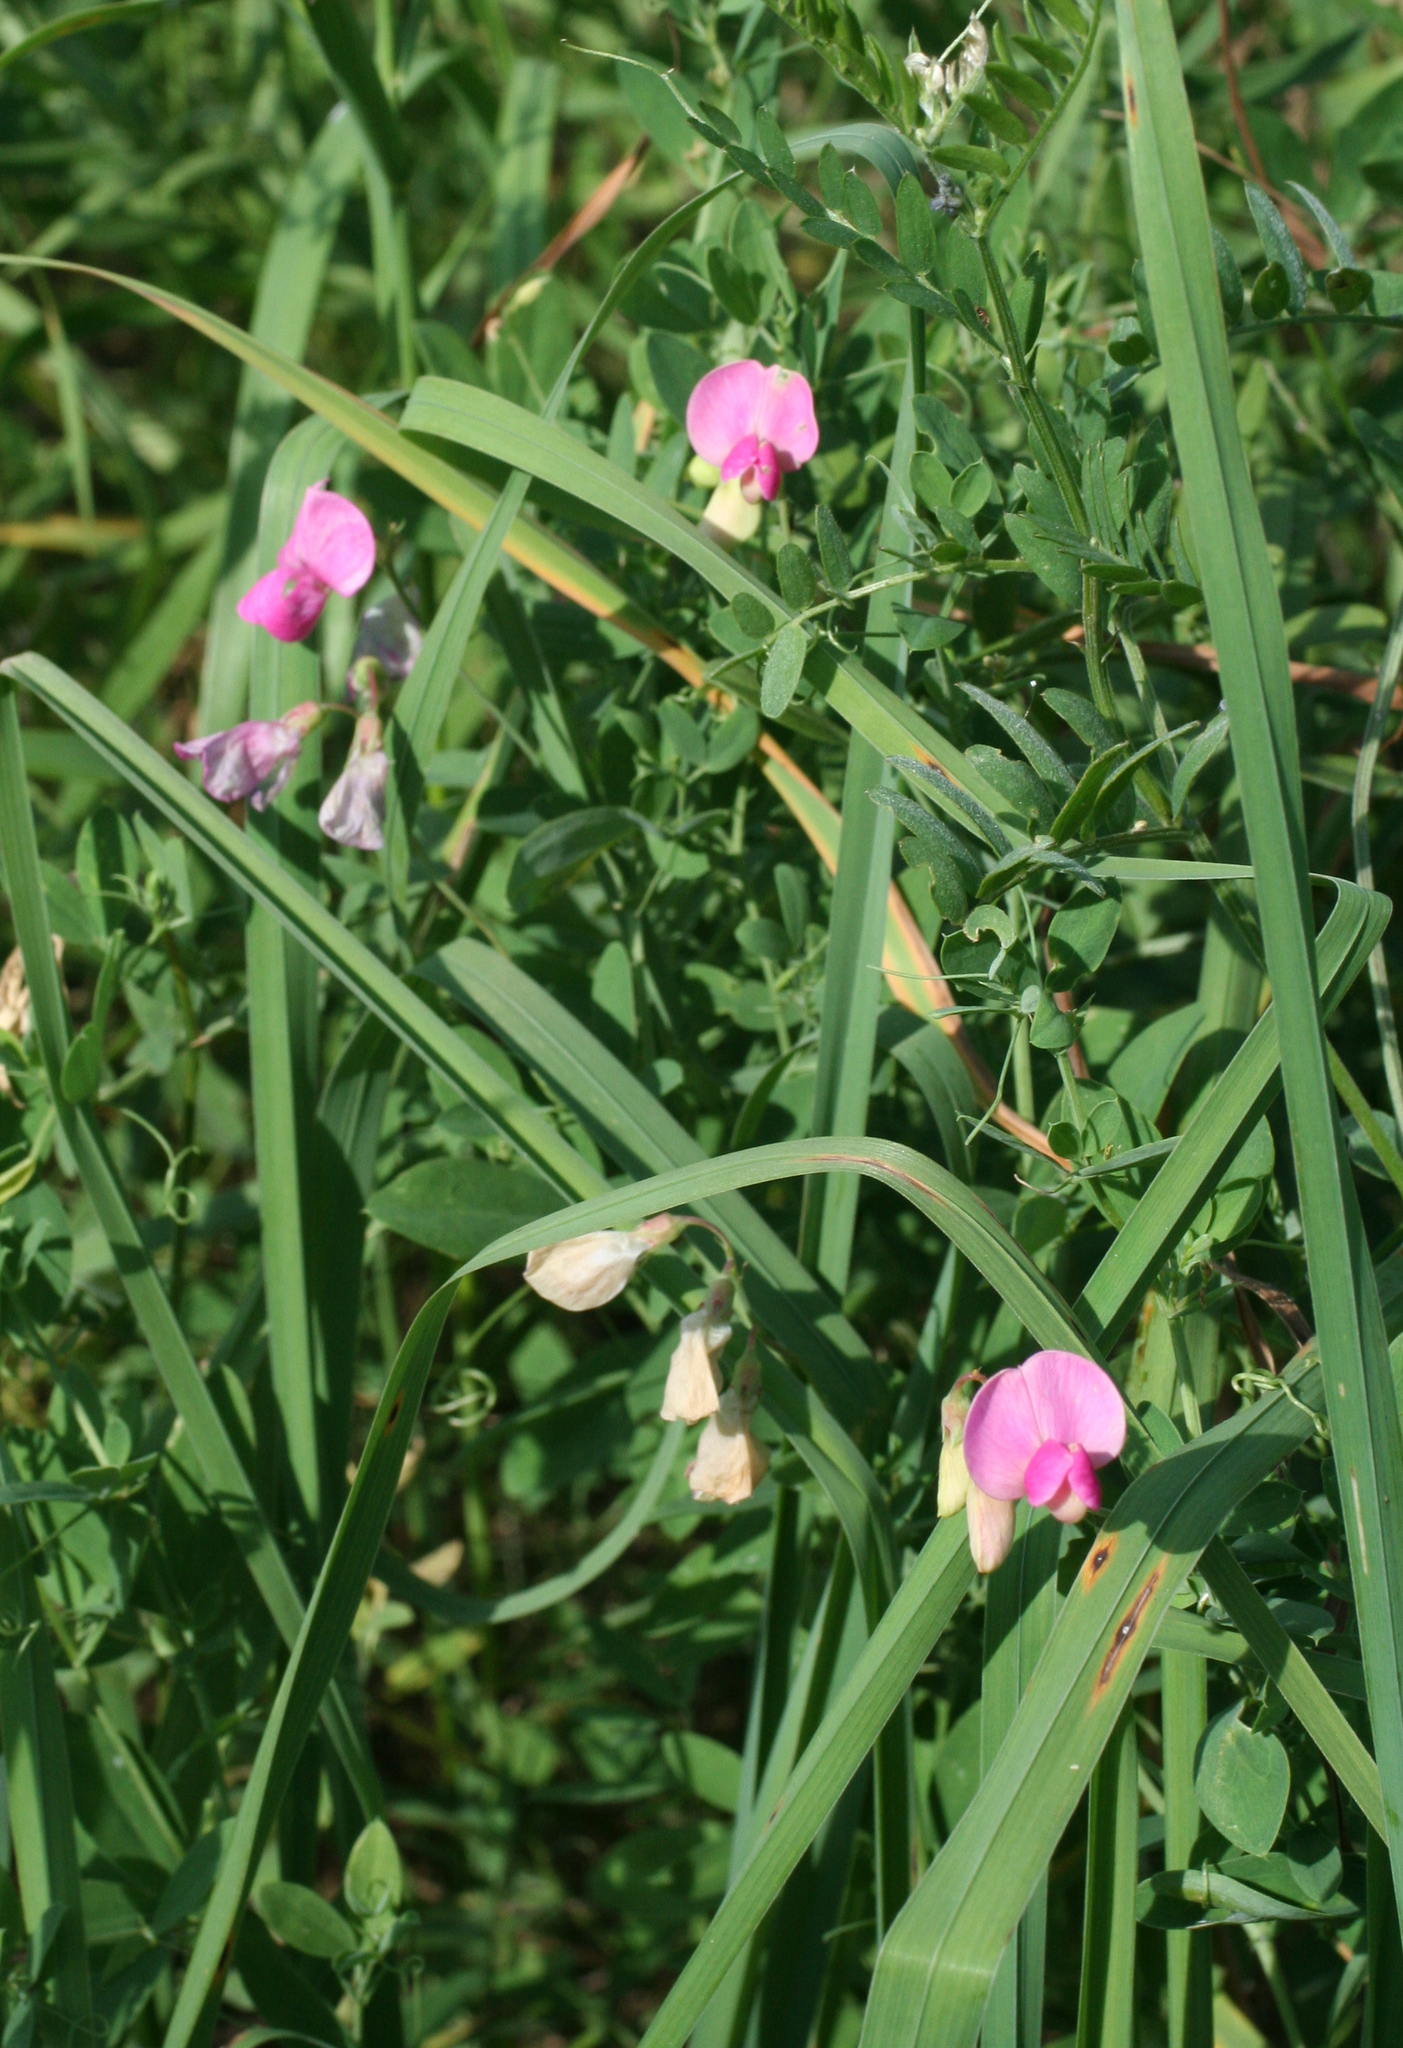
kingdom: Plantae
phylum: Tracheophyta
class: Magnoliopsida
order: Fabales
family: Fabaceae
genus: Lathyrus
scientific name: Lathyrus tuberosus
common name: Tuberous pea
